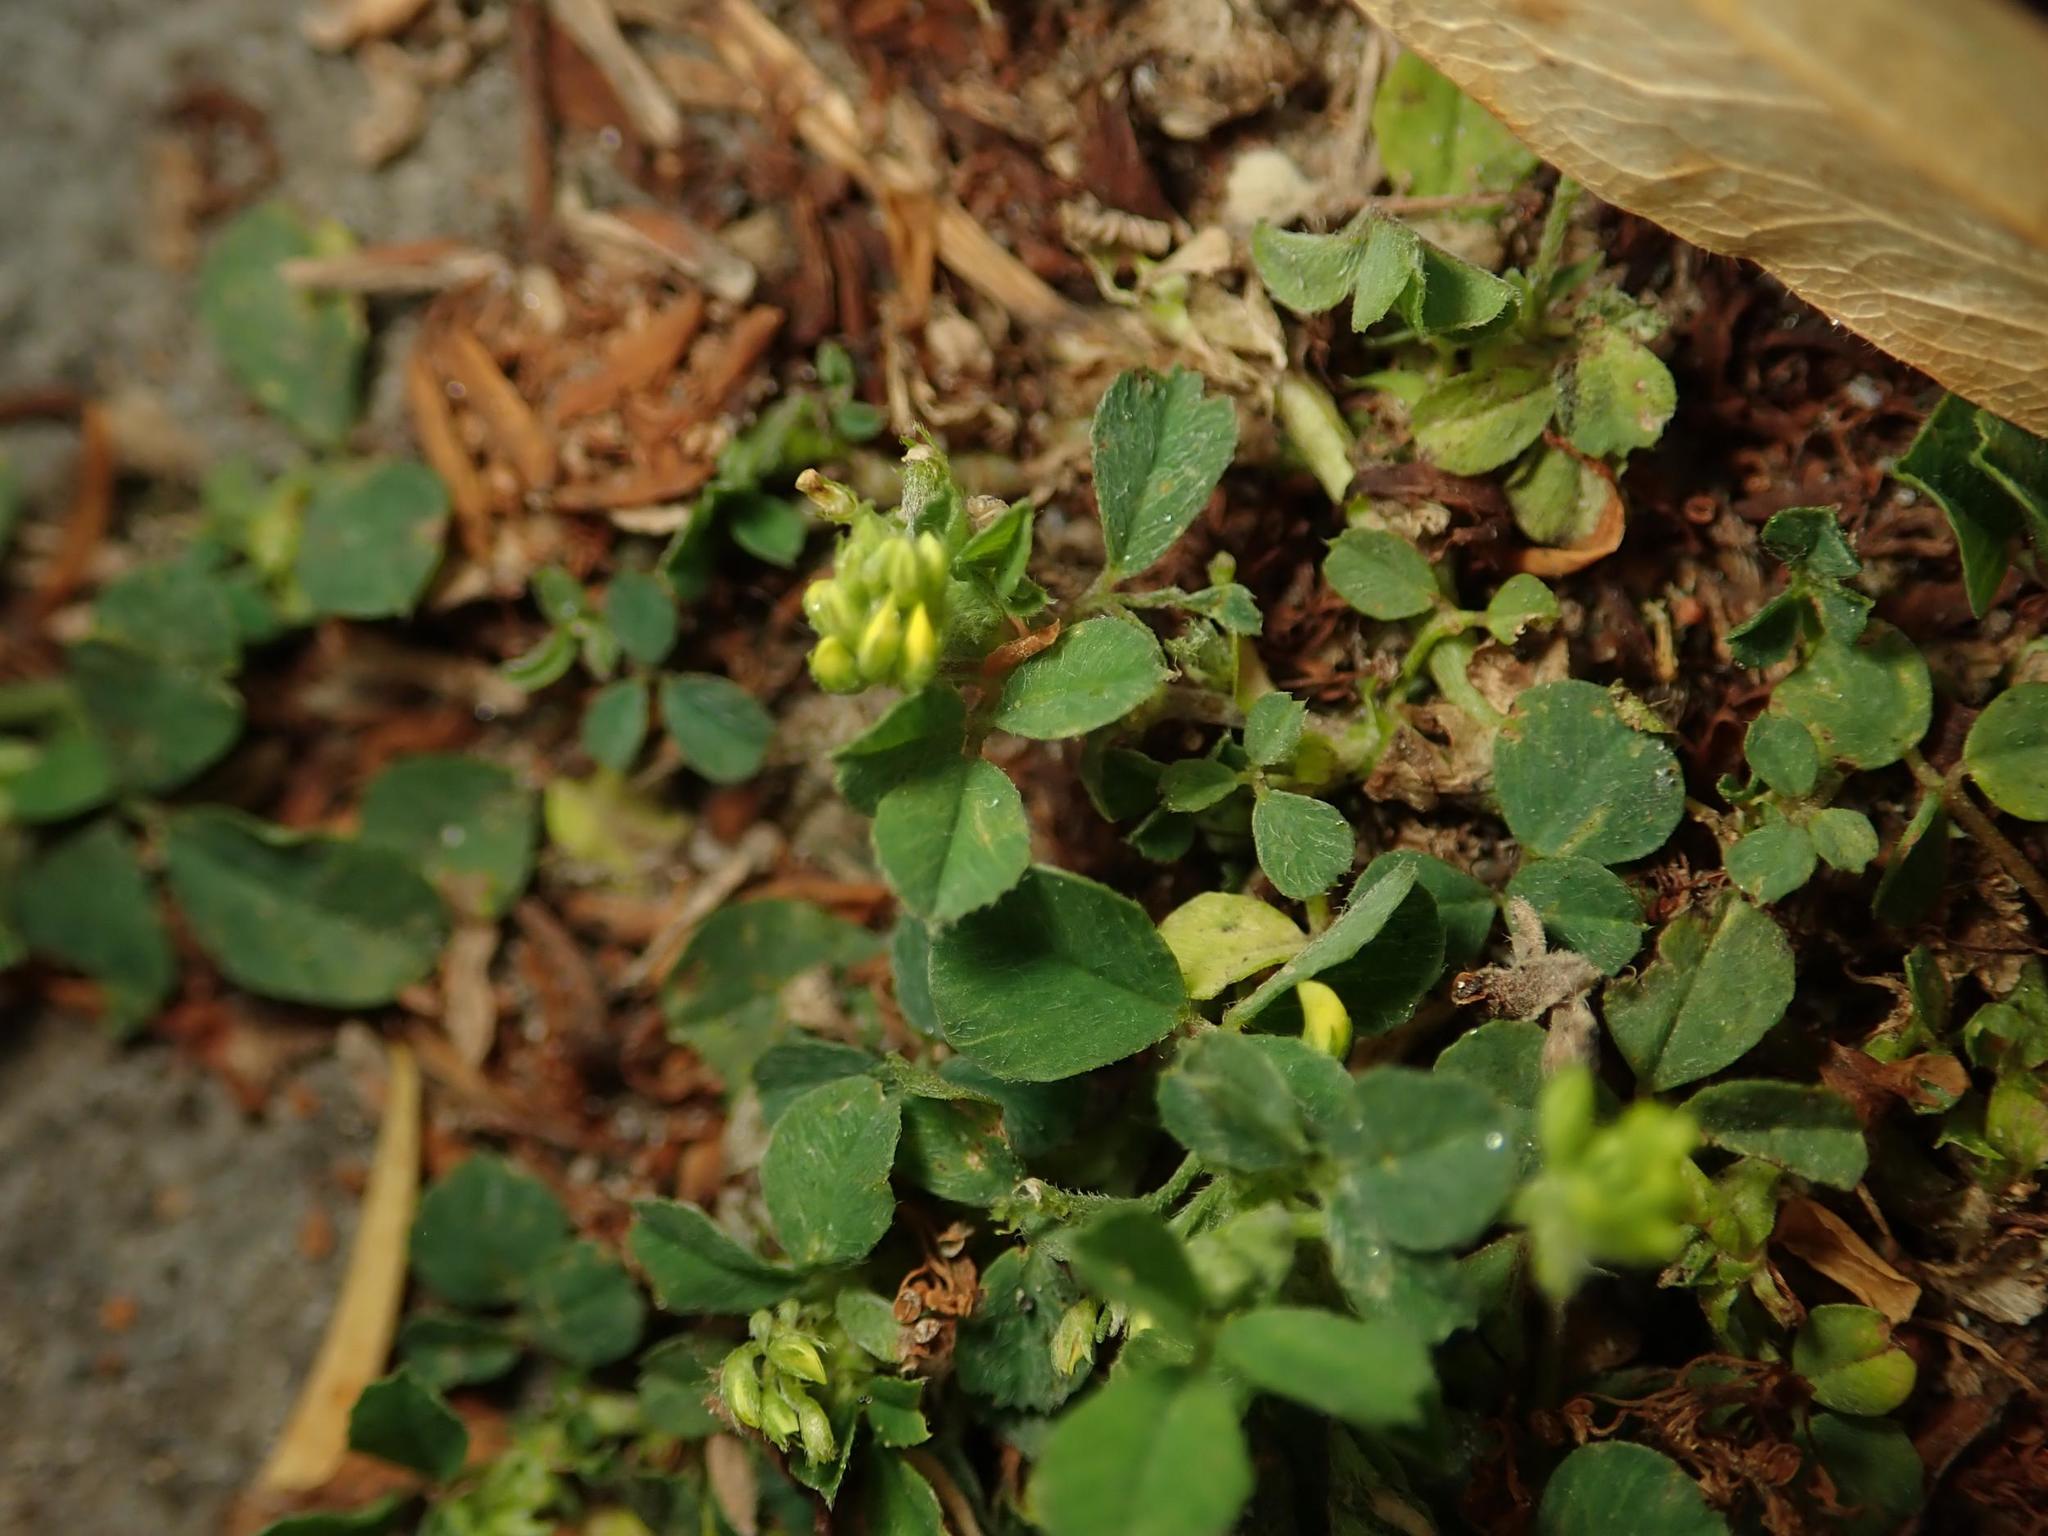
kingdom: Plantae
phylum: Tracheophyta
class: Magnoliopsida
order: Fabales
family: Fabaceae
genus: Medicago
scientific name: Medicago lupulina
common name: Black medick
